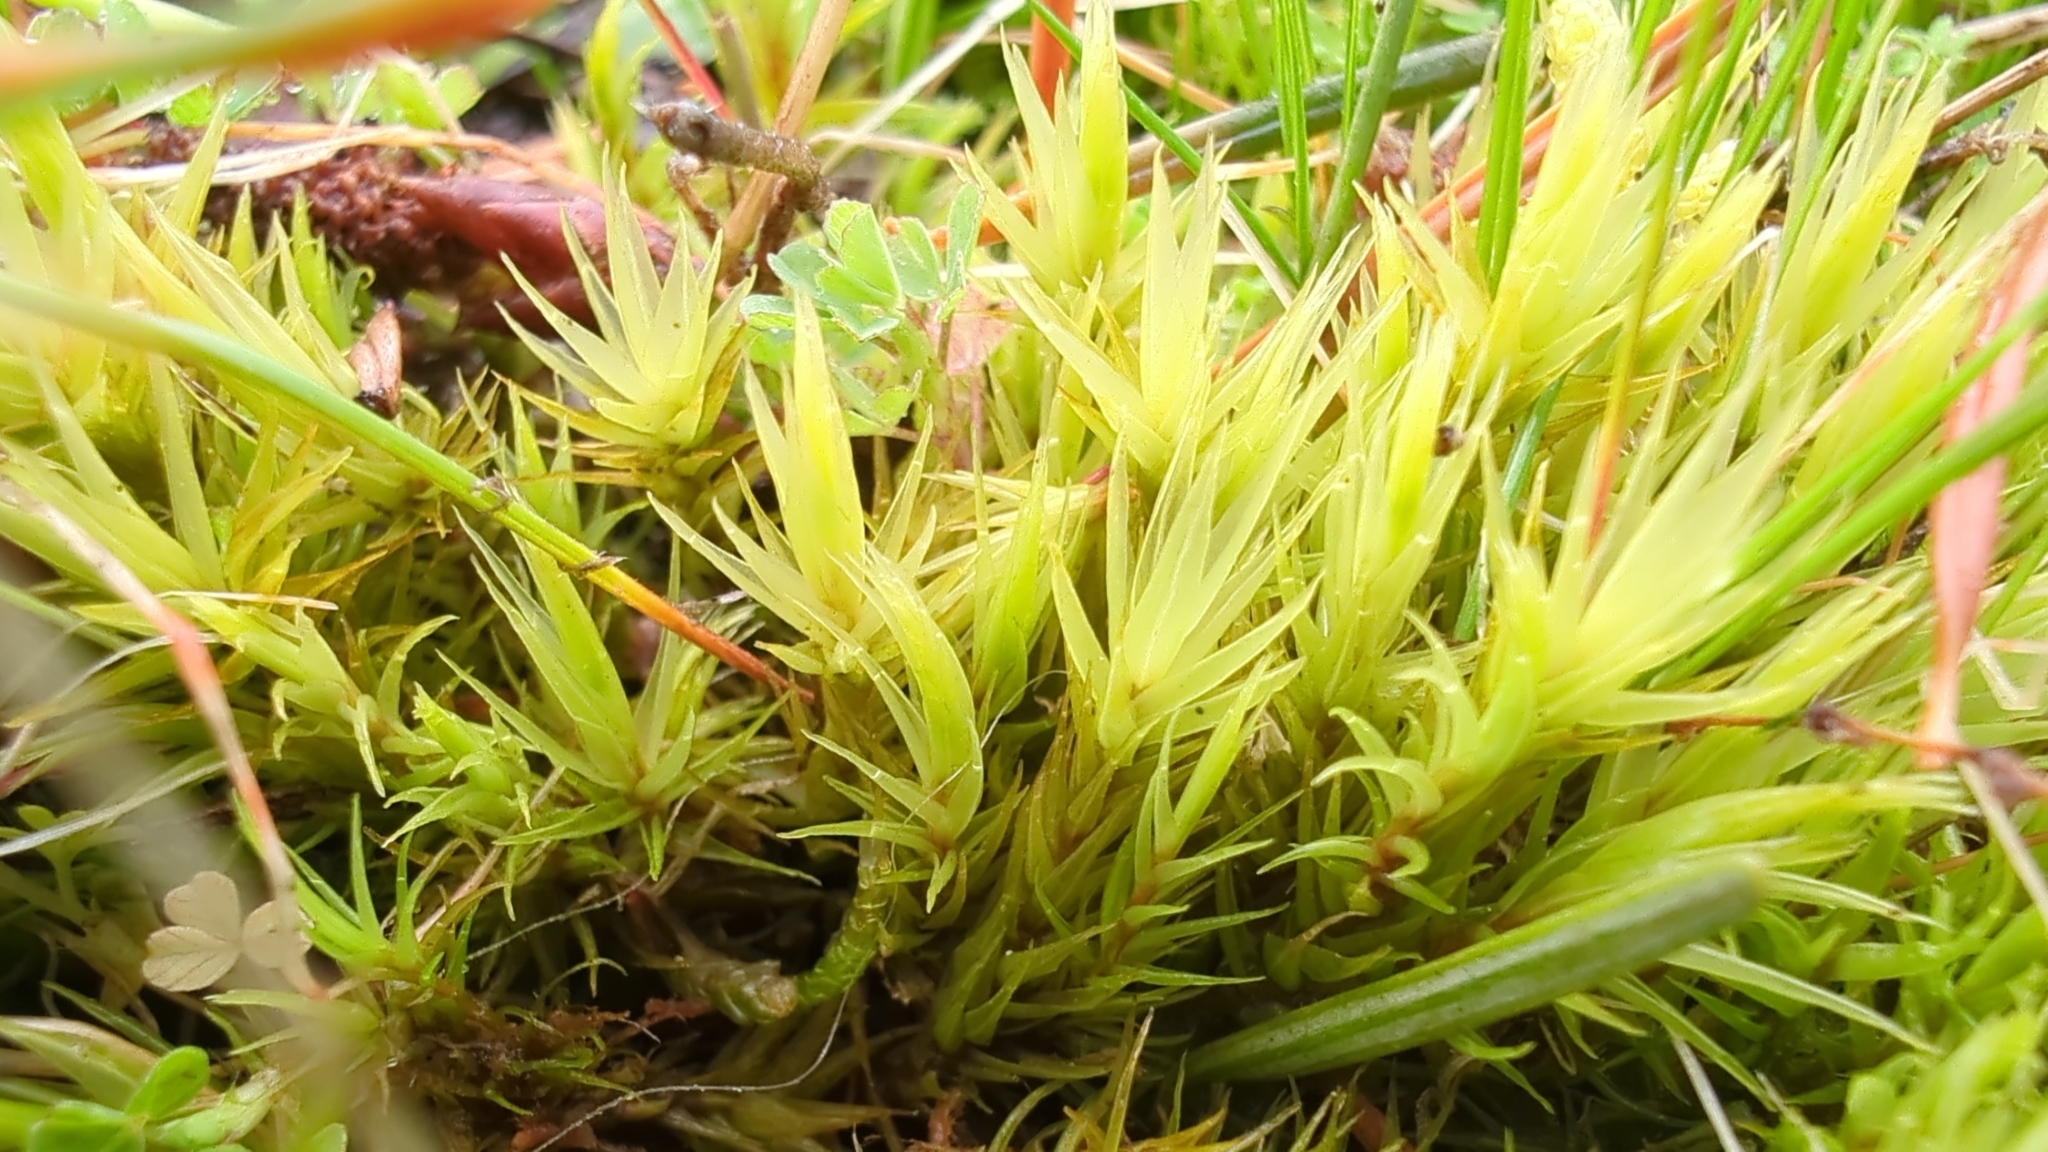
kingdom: Plantae
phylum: Bryophyta
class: Bryopsida
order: Dicranales
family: Dicranaceae
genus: Dicranum
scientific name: Dicranum scoparium
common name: Broom fork-moss
